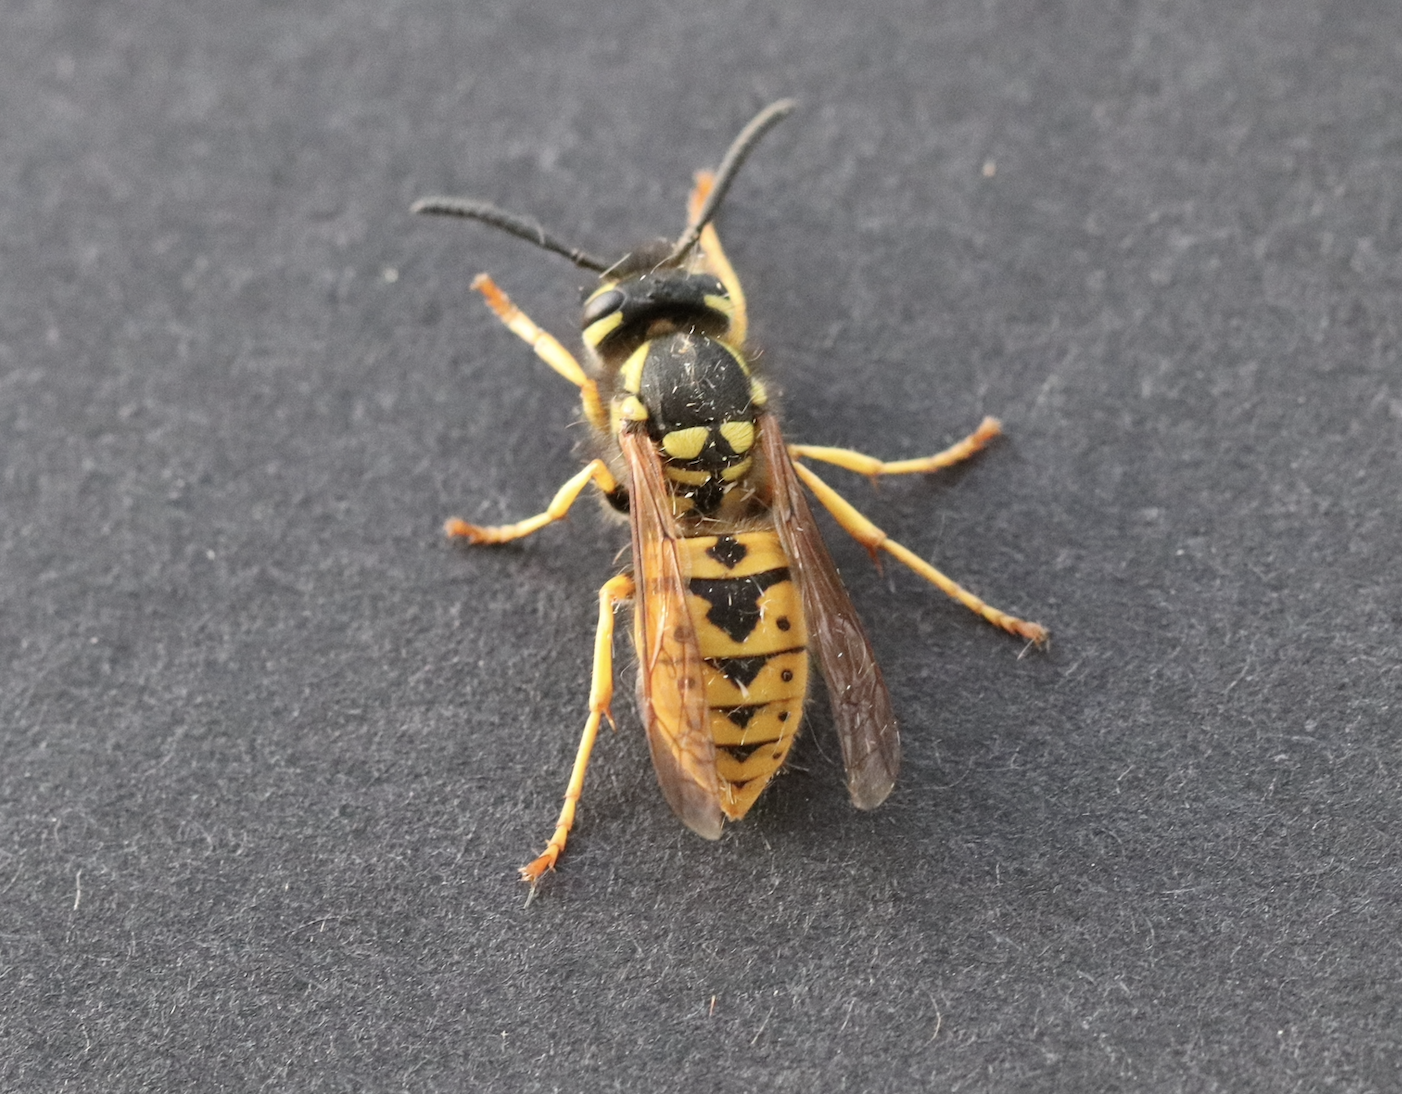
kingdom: Animalia
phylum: Arthropoda
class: Insecta
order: Hymenoptera
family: Vespidae
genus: Vespula
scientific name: Vespula germanica
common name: German wasp
